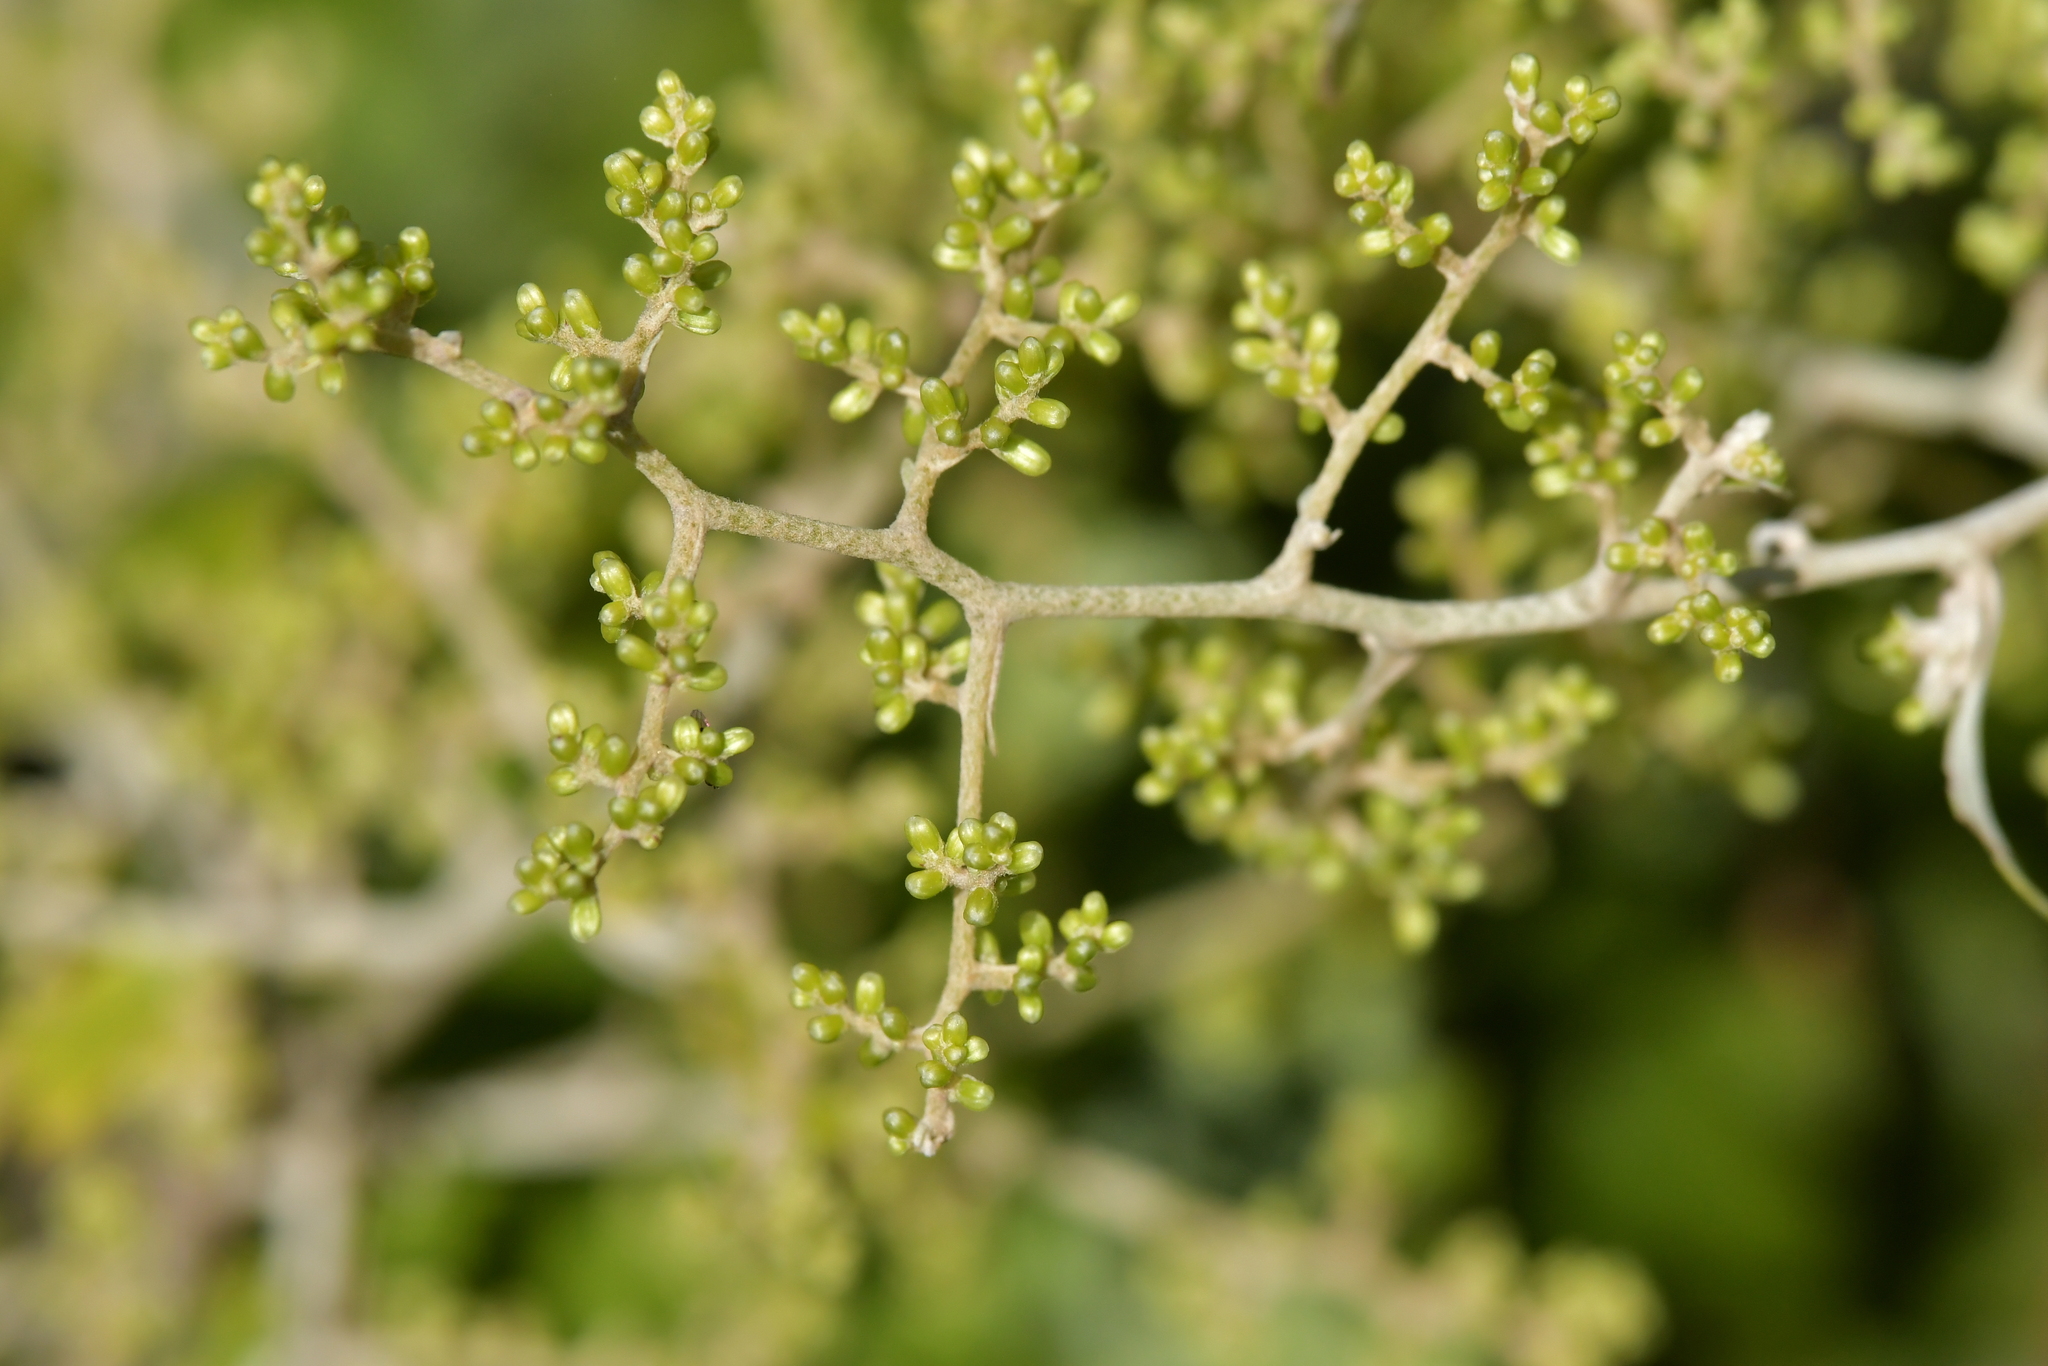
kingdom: Plantae
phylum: Tracheophyta
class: Magnoliopsida
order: Asterales
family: Asteraceae
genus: Brachyglottis
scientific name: Brachyglottis repanda
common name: Hedge ragwort
